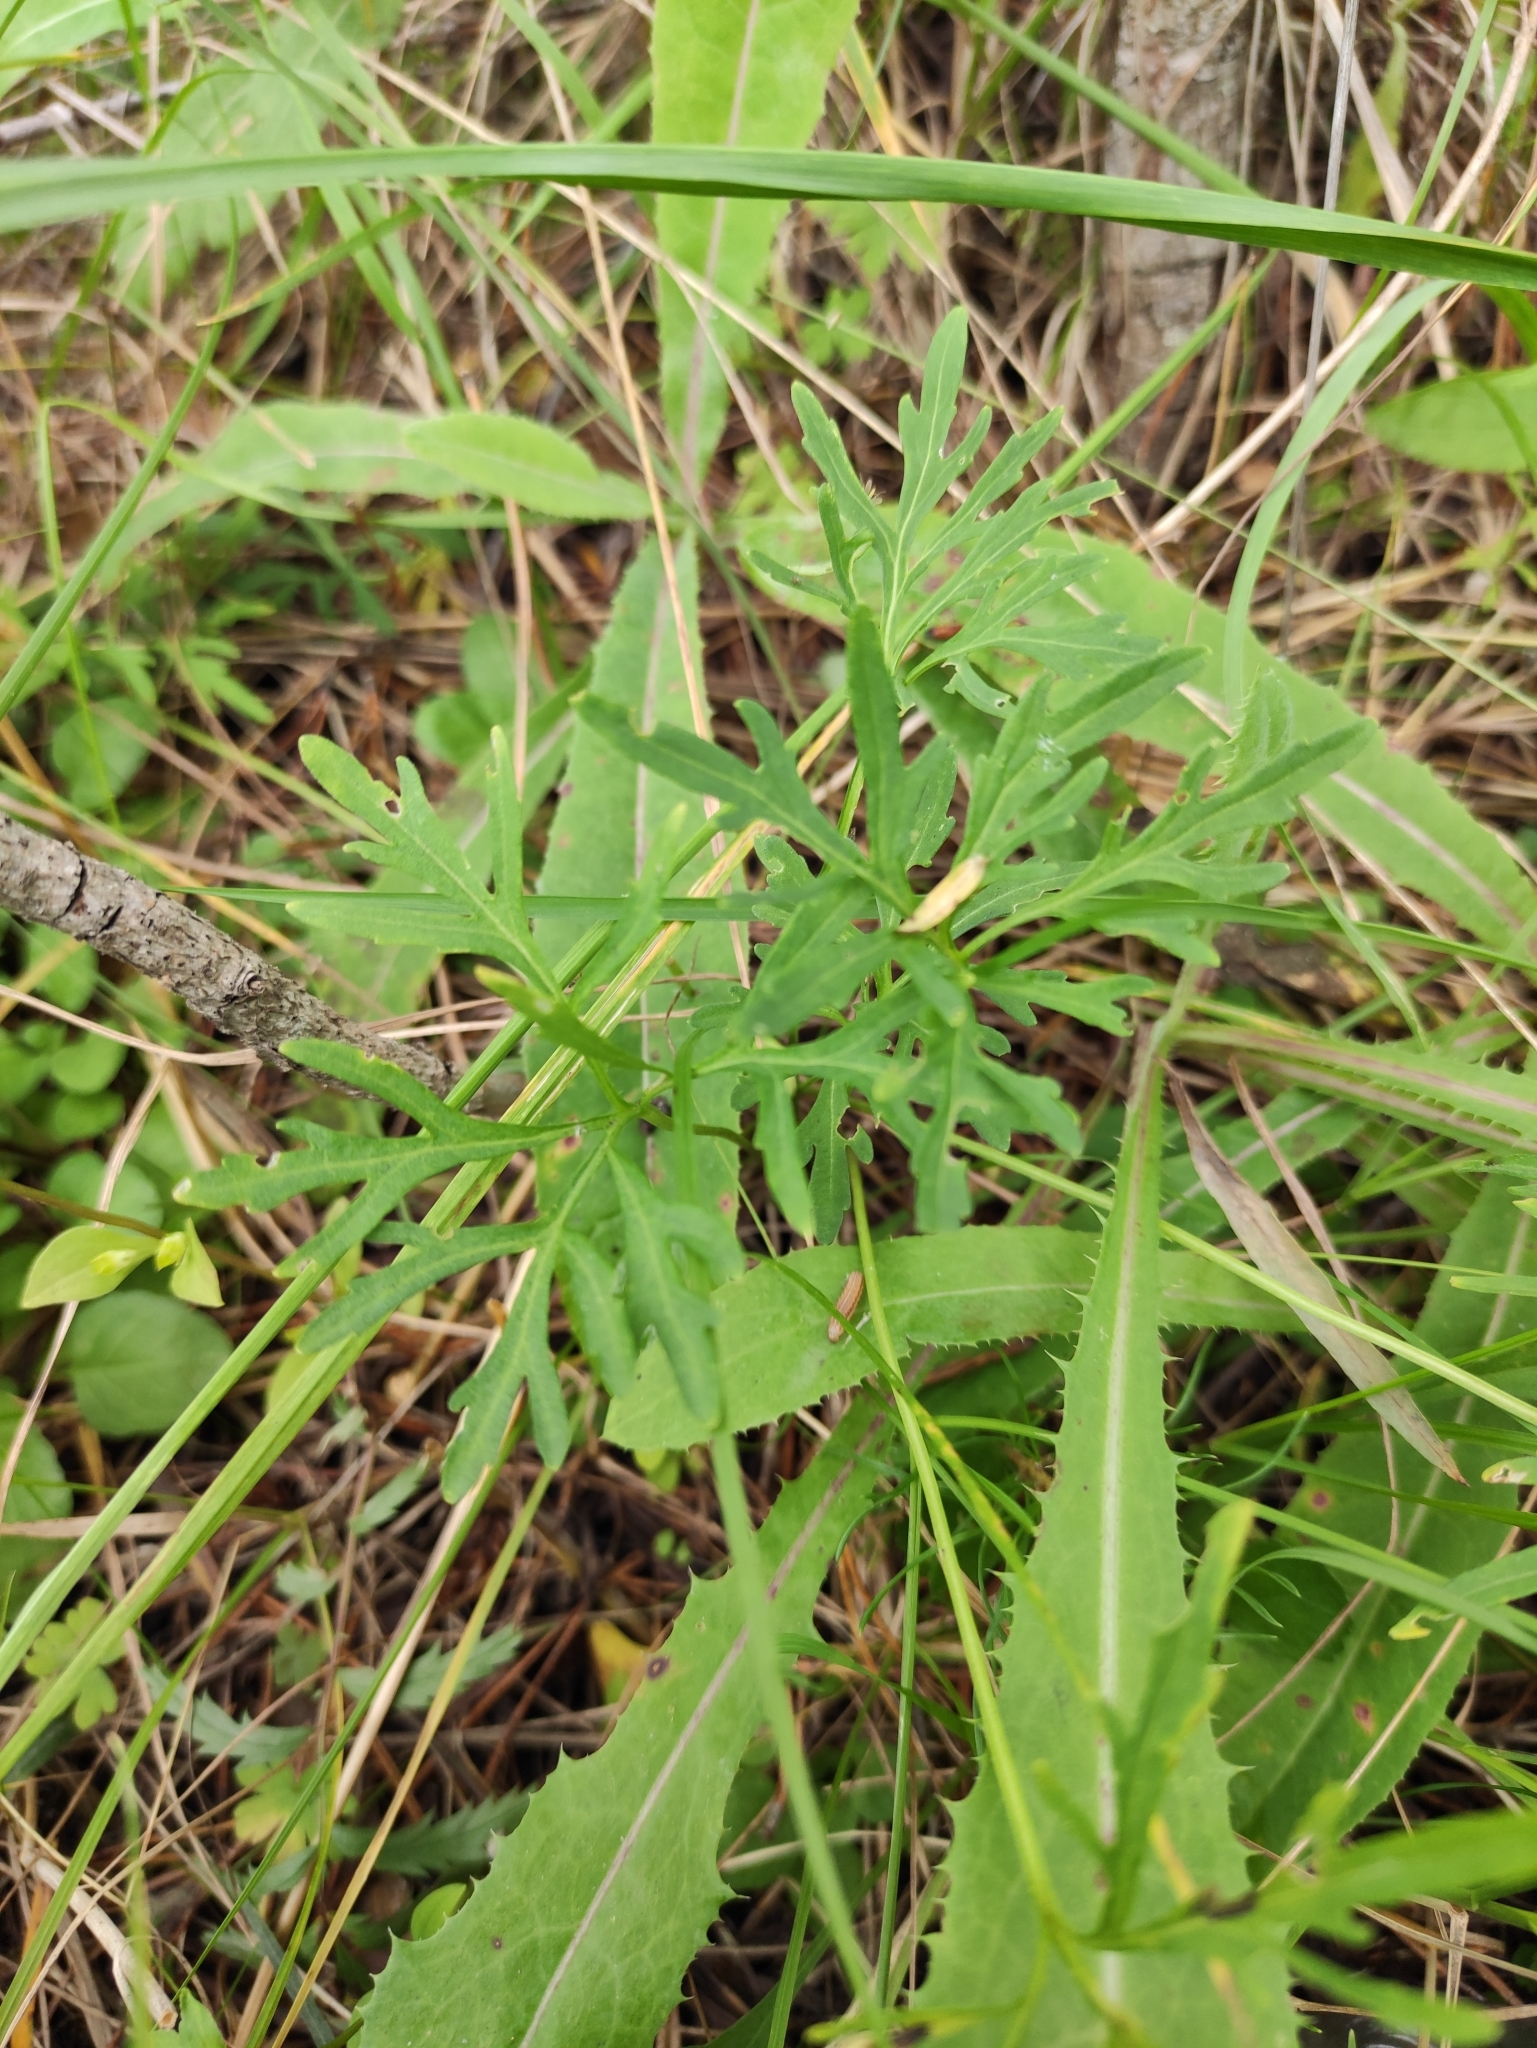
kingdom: Plantae
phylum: Tracheophyta
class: Magnoliopsida
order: Malpighiales
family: Violaceae
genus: Viola
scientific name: Viola multifida
